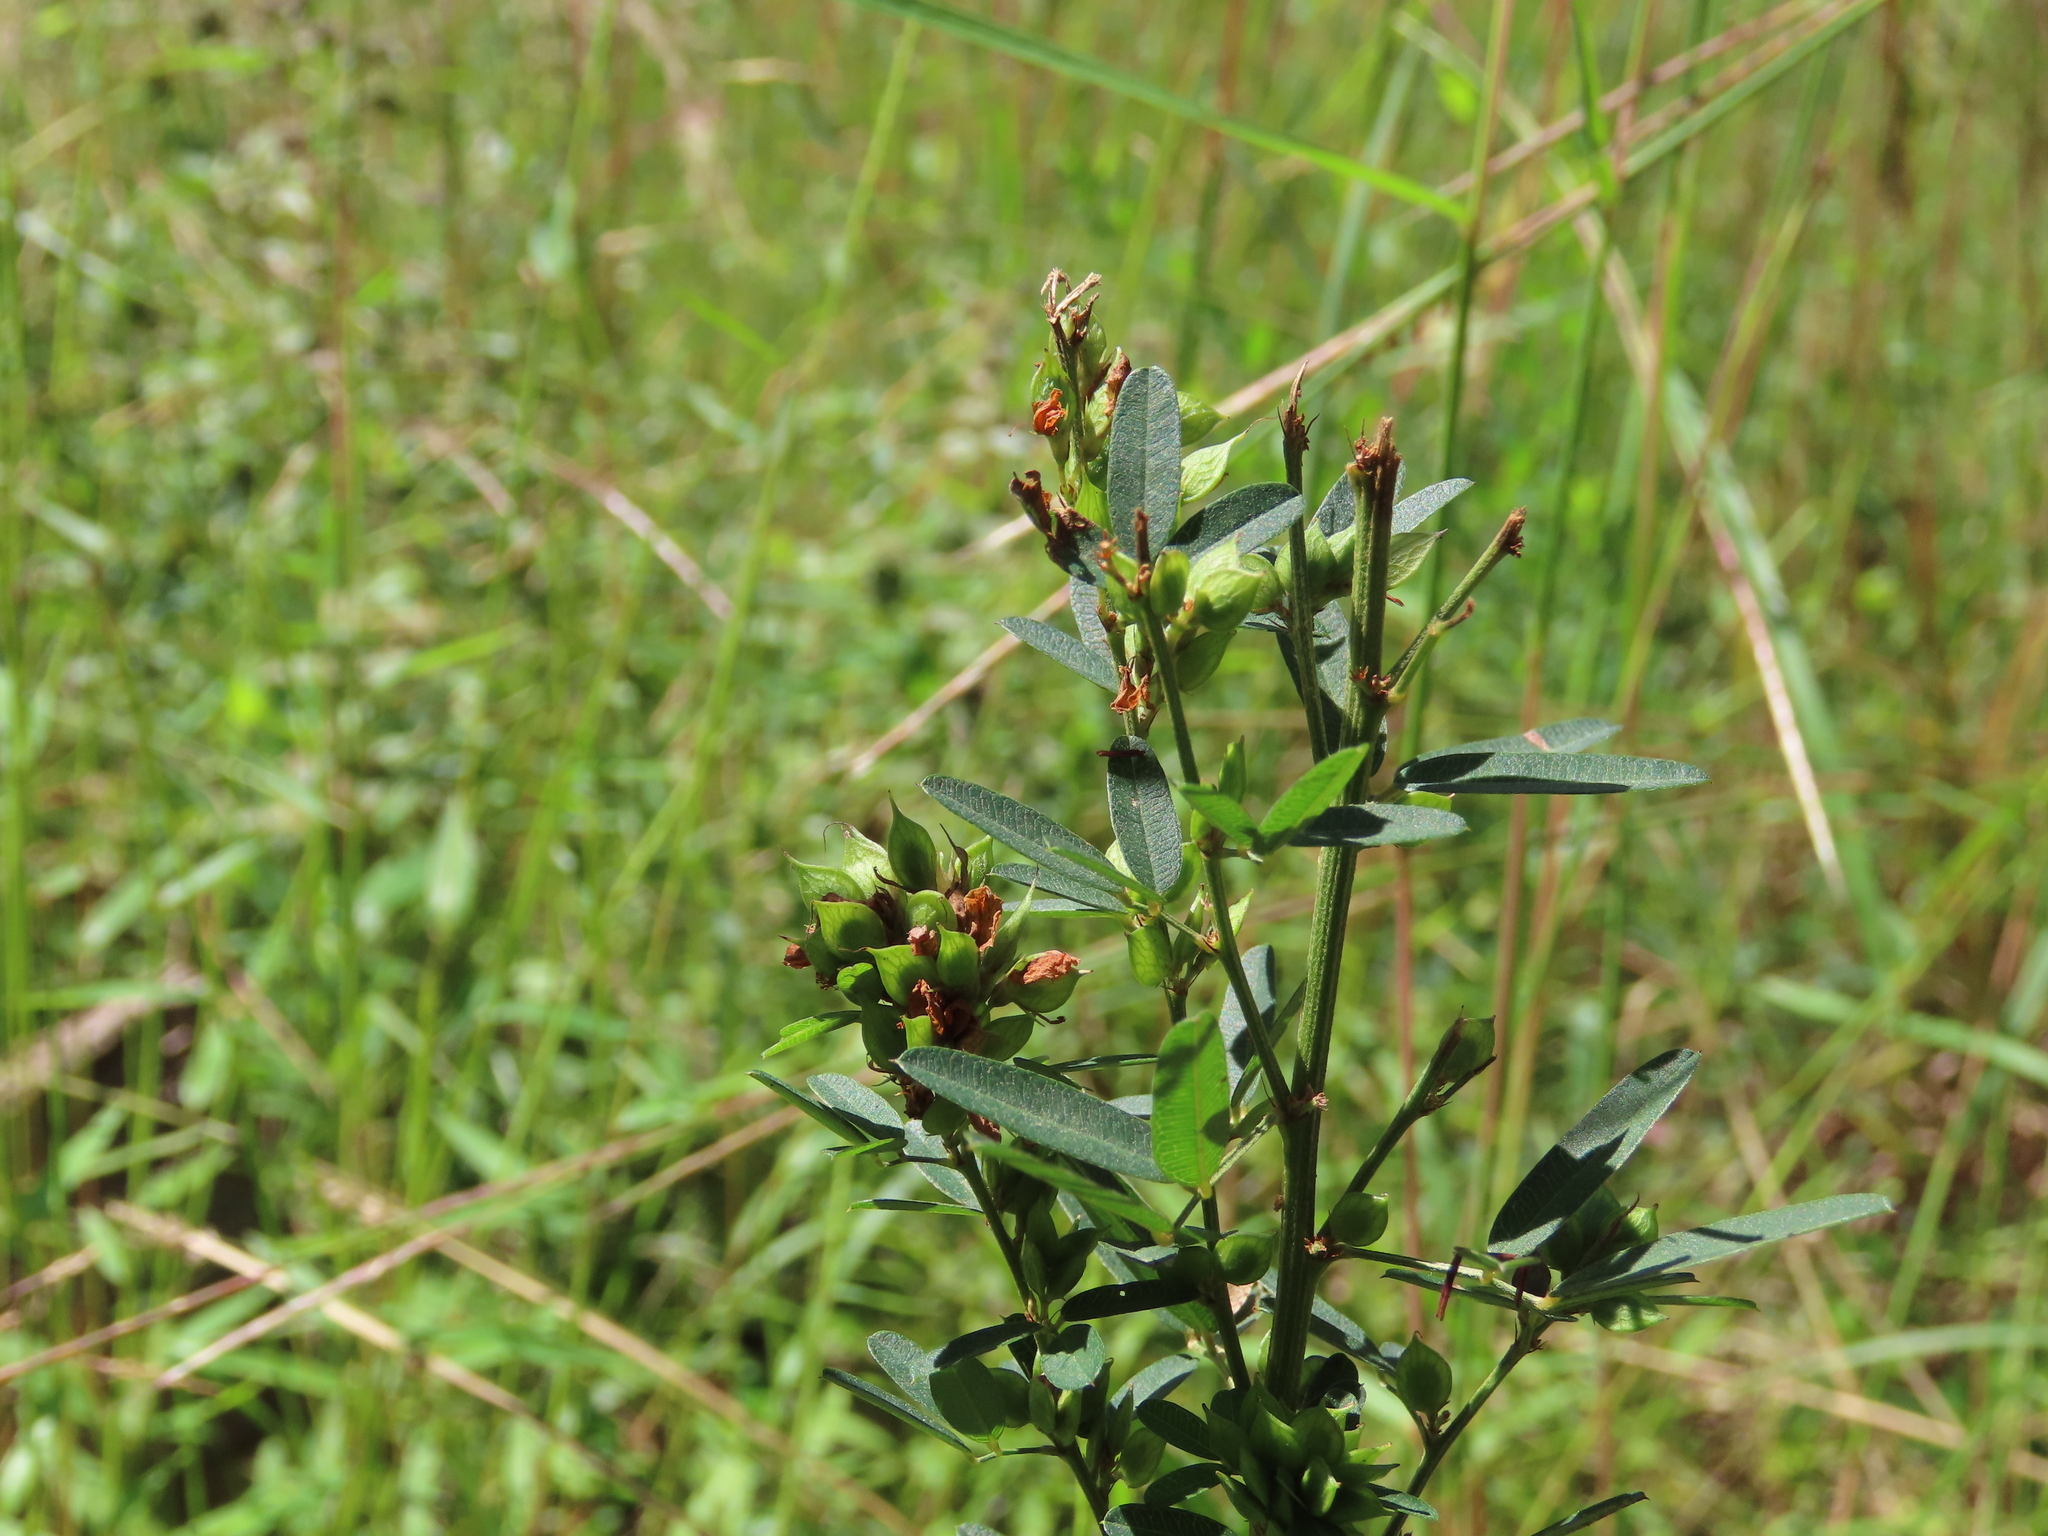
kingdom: Plantae
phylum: Tracheophyta
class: Magnoliopsida
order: Fabales
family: Fabaceae
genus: Lespedeza
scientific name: Lespedeza virginica
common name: Slender bush-clover
